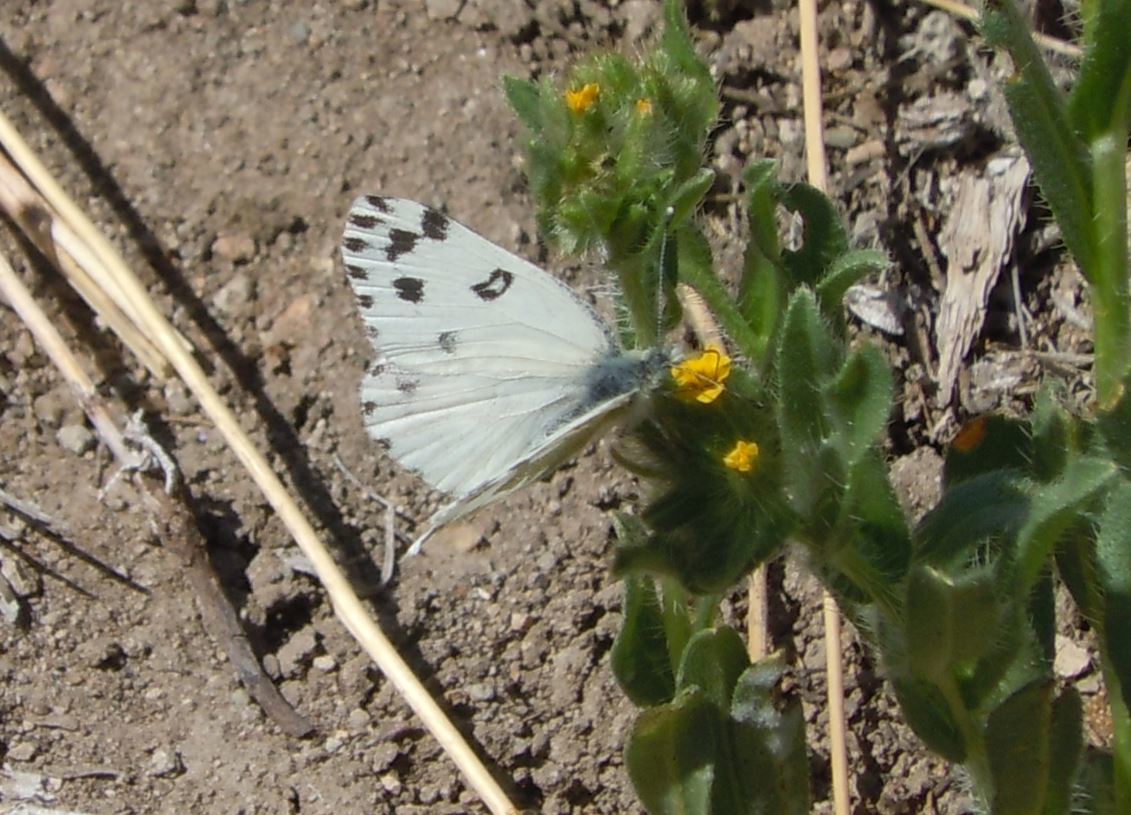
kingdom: Animalia
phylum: Arthropoda
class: Insecta
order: Lepidoptera
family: Pieridae
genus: Pontia
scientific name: Pontia beckerii
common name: Becker's white
